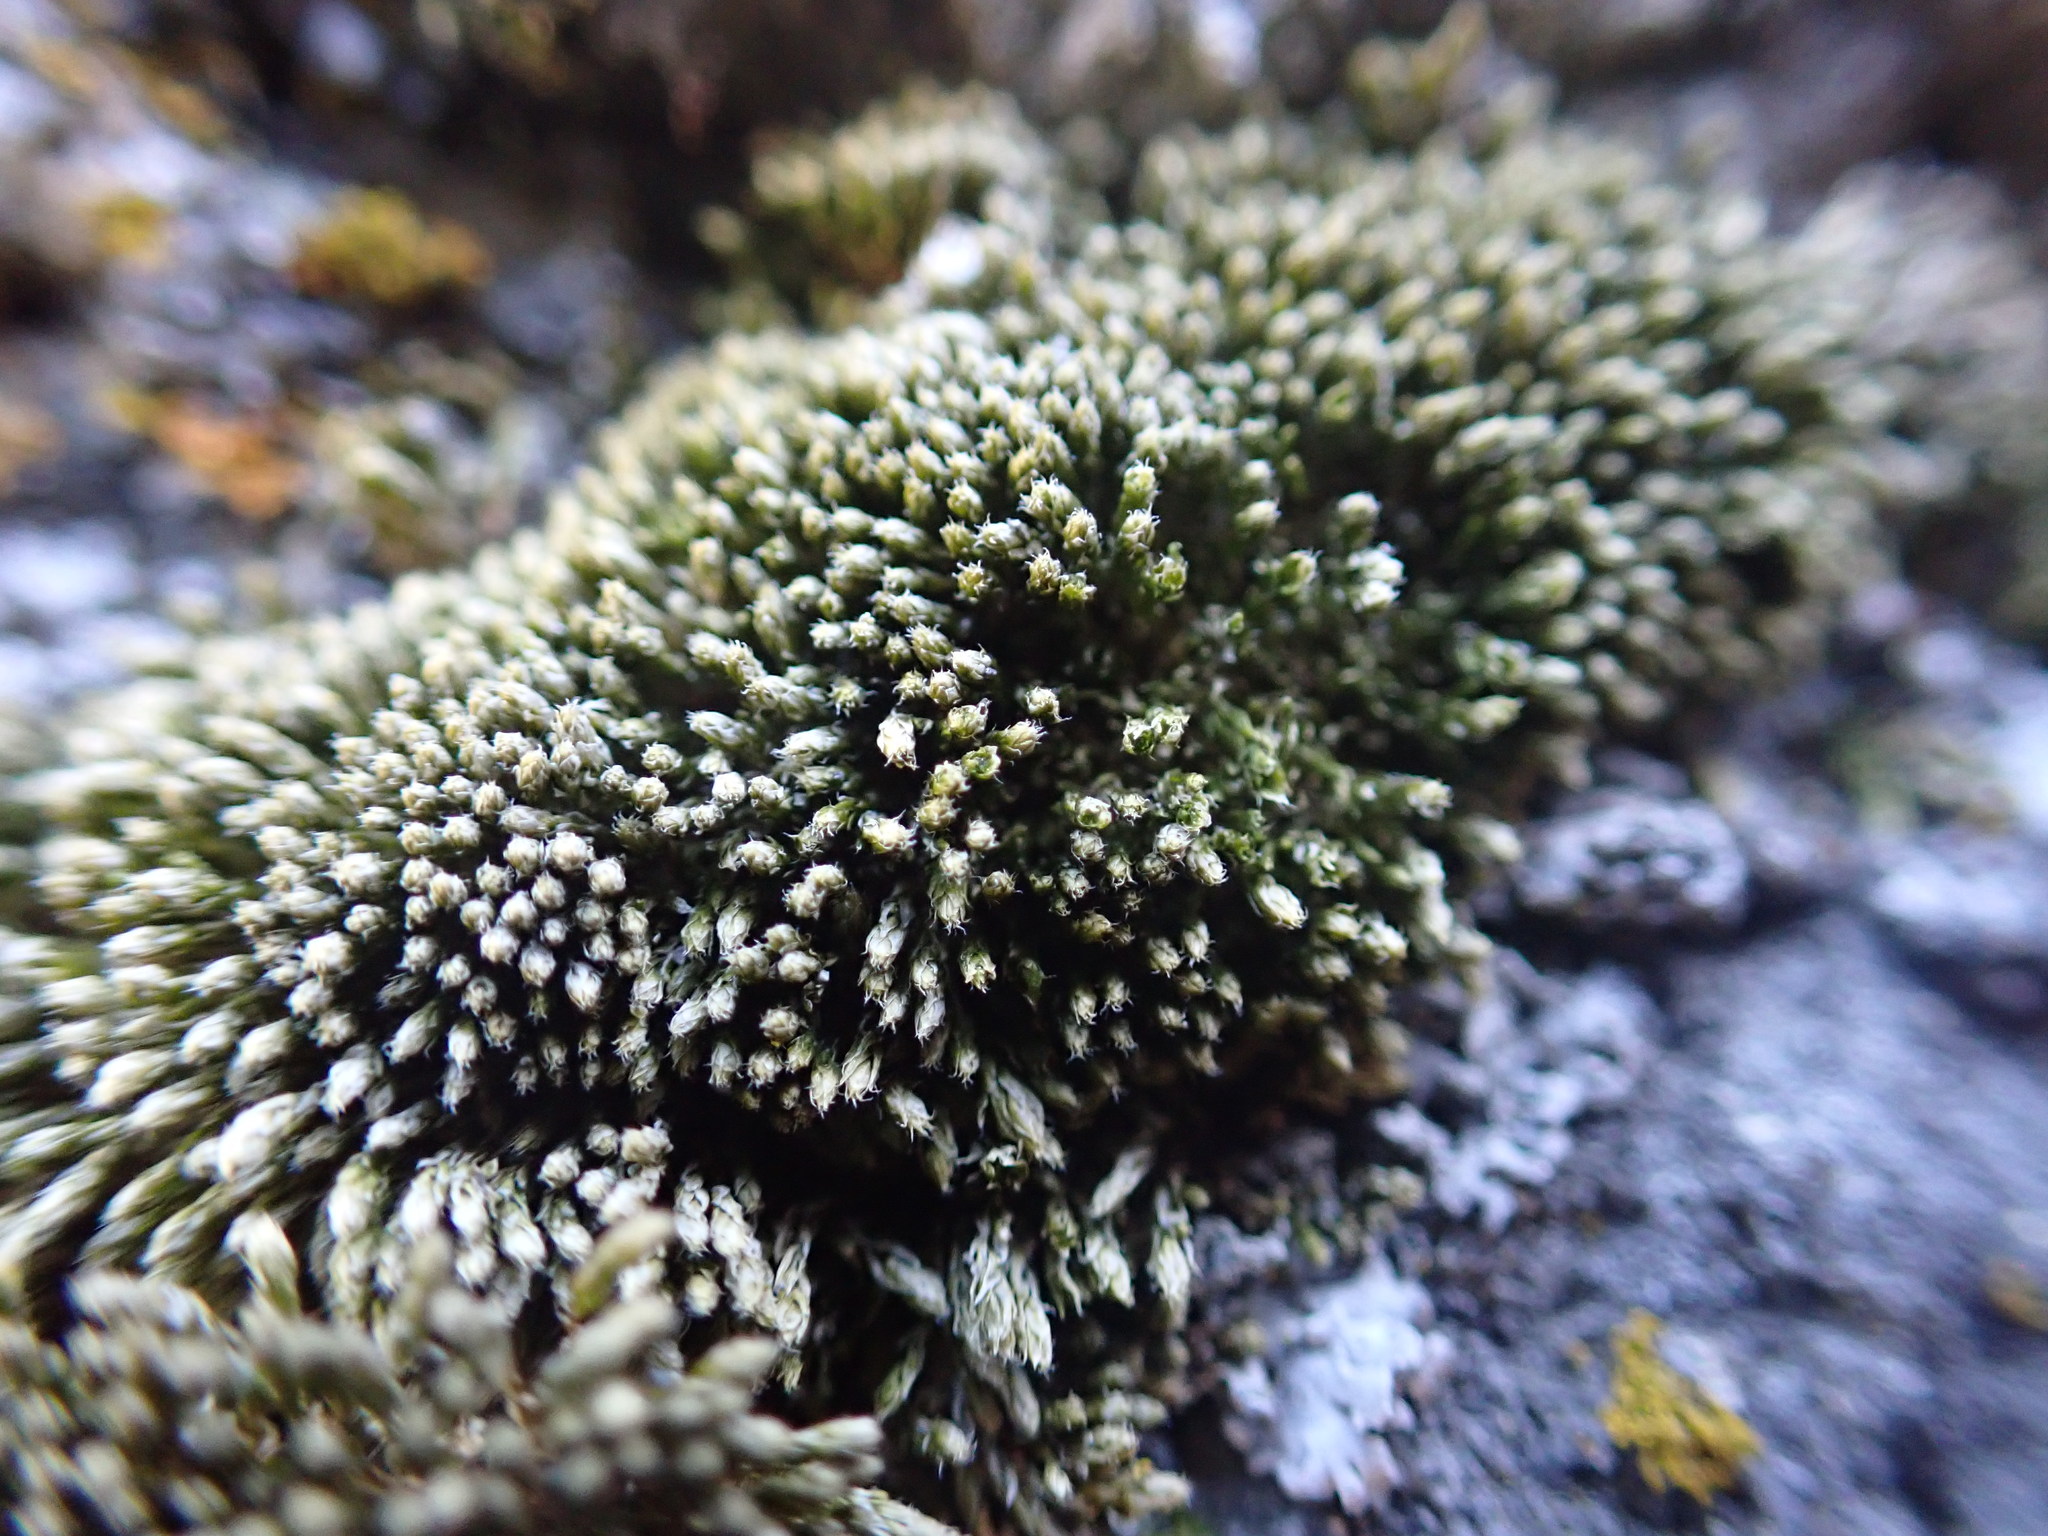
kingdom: Plantae
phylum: Bryophyta
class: Bryopsida
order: Bryales
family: Bryaceae
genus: Bryum
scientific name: Bryum argenteum
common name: Silver-moss
